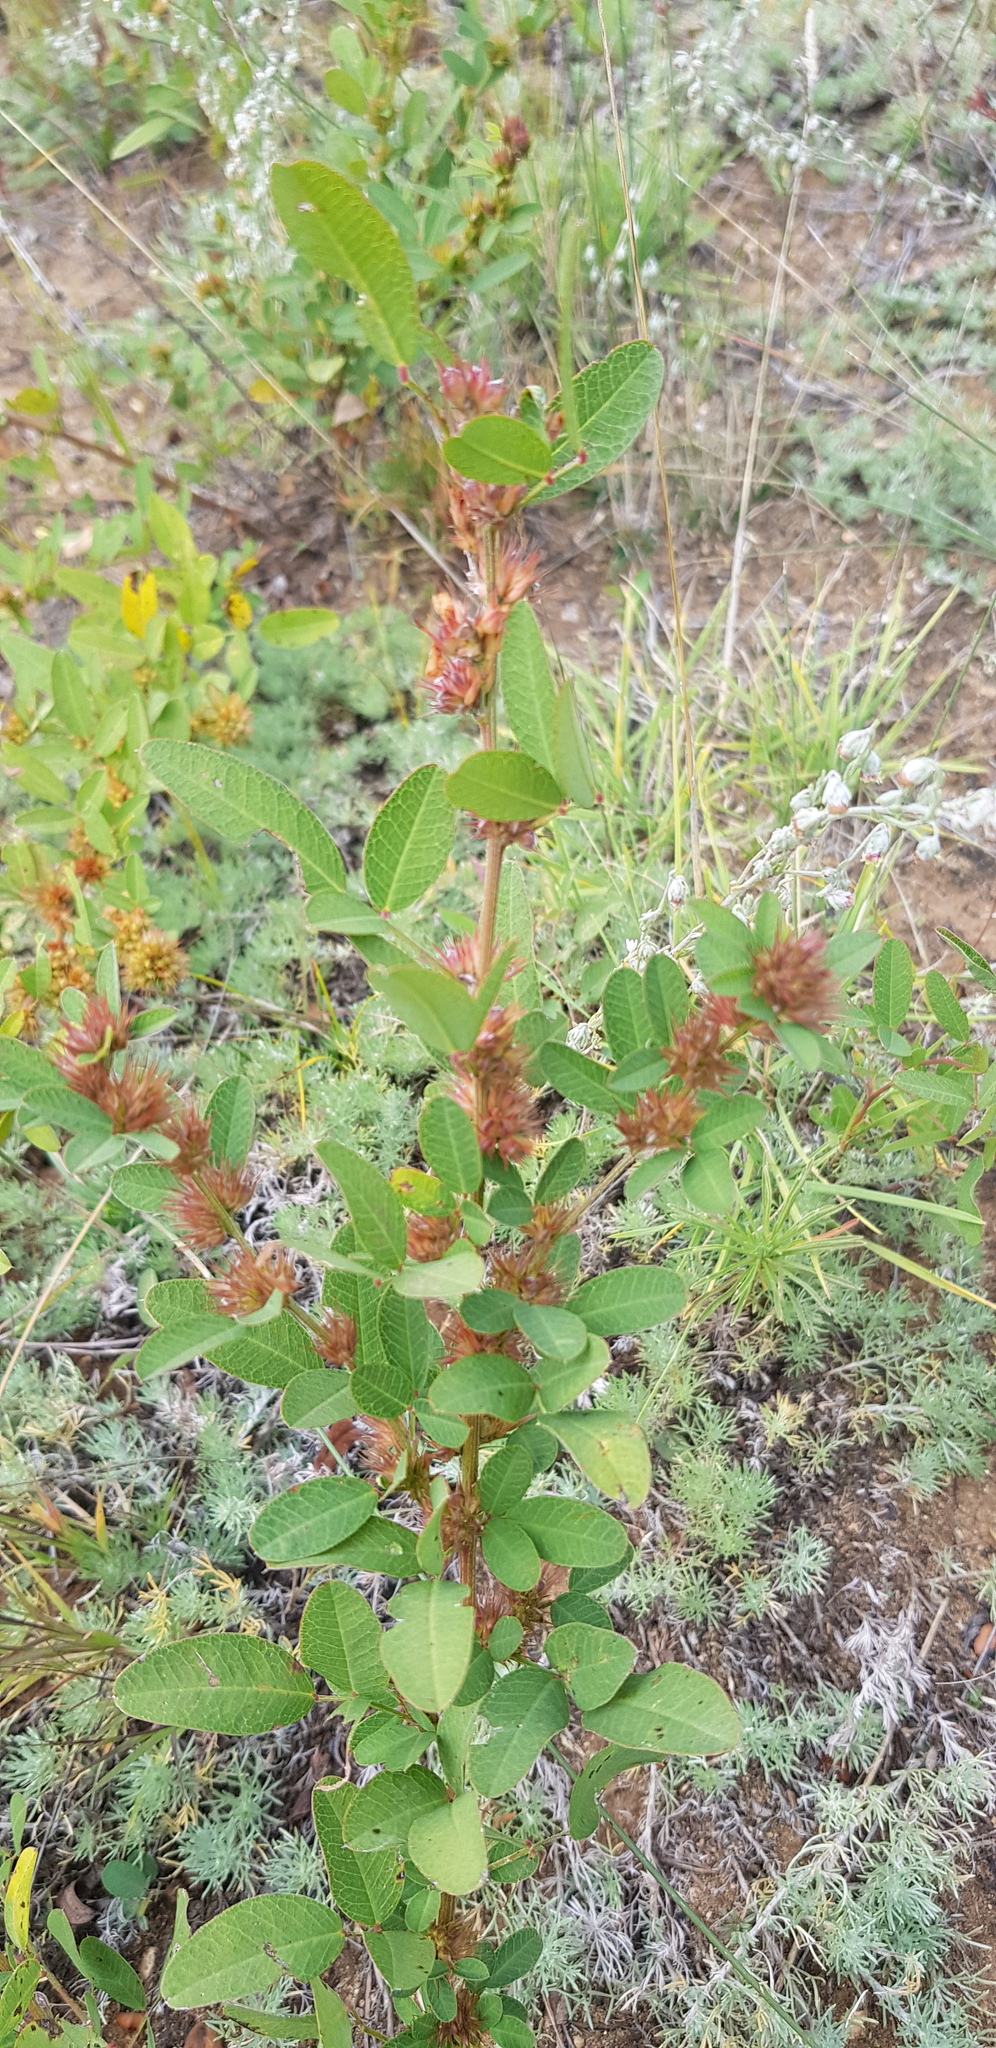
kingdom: Plantae
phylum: Tracheophyta
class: Magnoliopsida
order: Fabales
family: Fabaceae
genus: Lespedeza
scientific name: Lespedeza daurica
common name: Dahurian lespedeza
